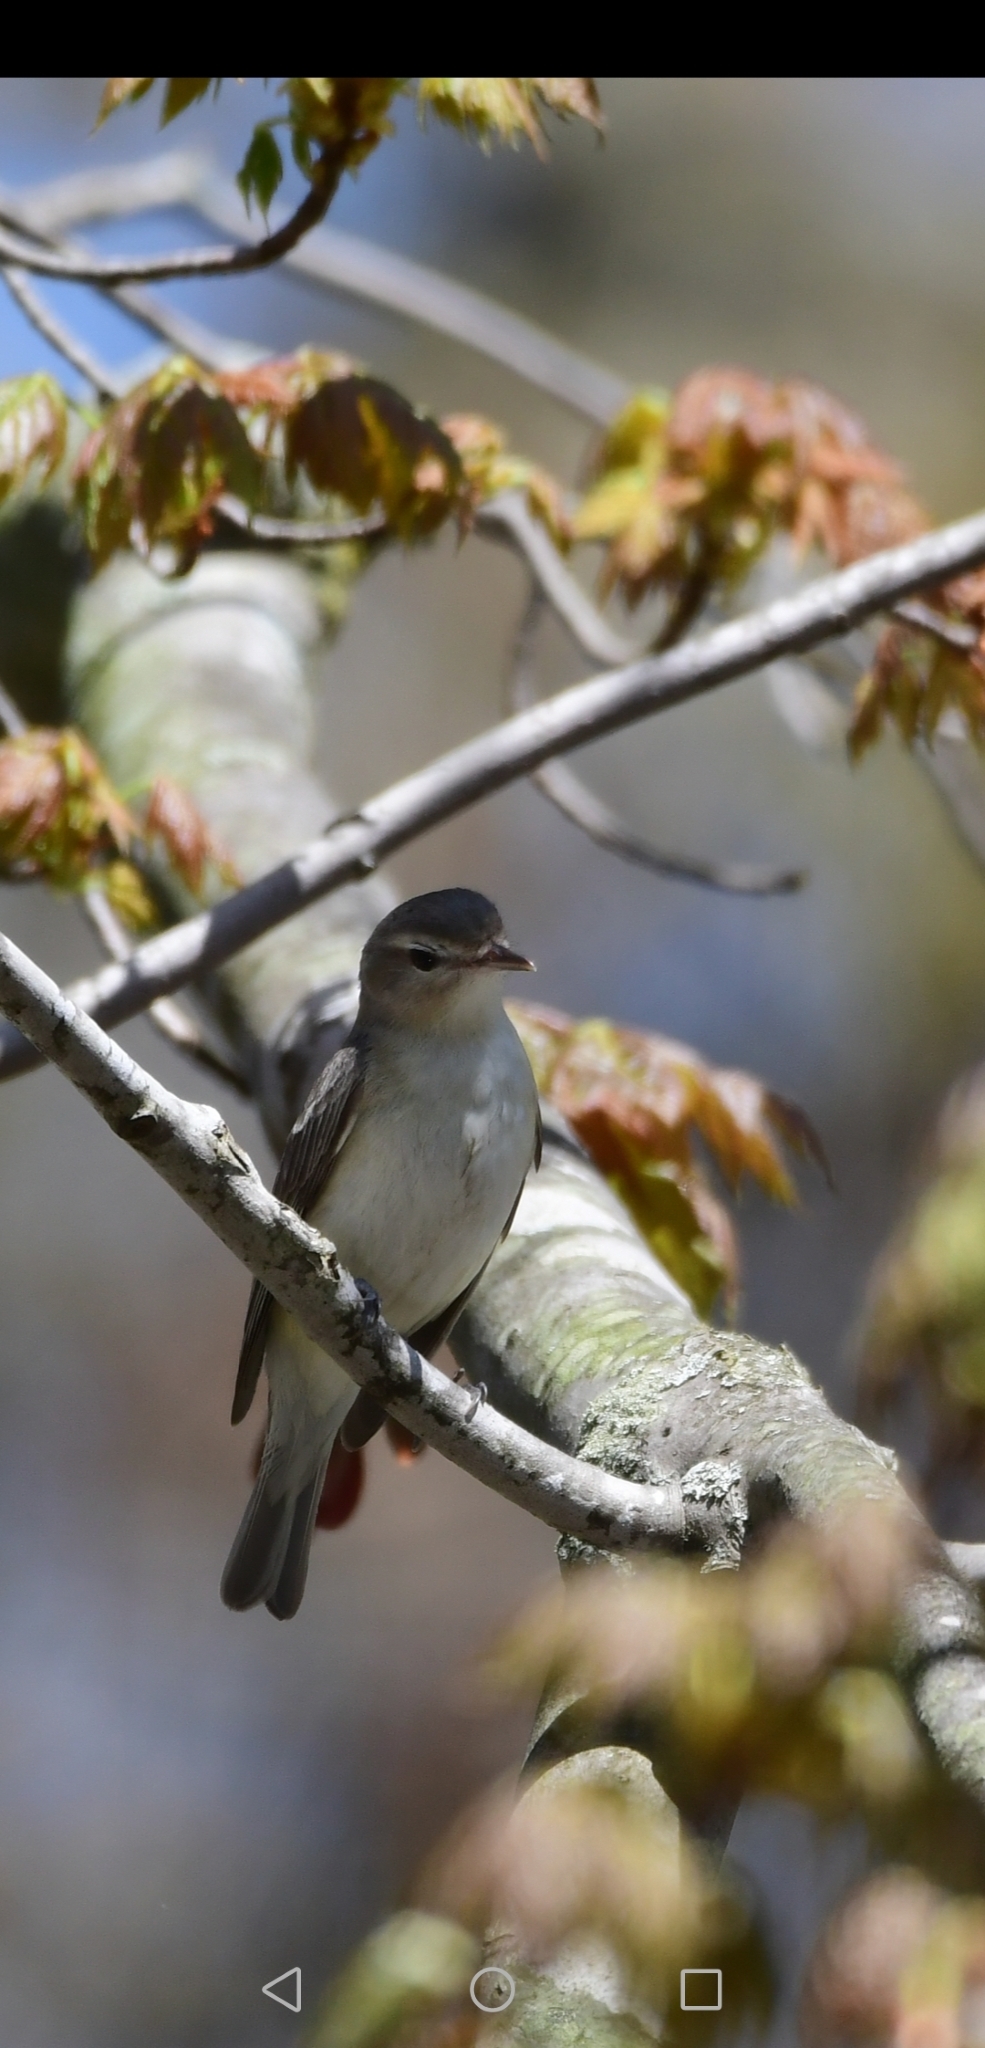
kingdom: Animalia
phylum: Chordata
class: Aves
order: Passeriformes
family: Vireonidae
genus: Vireo
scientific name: Vireo gilvus
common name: Warbling vireo
